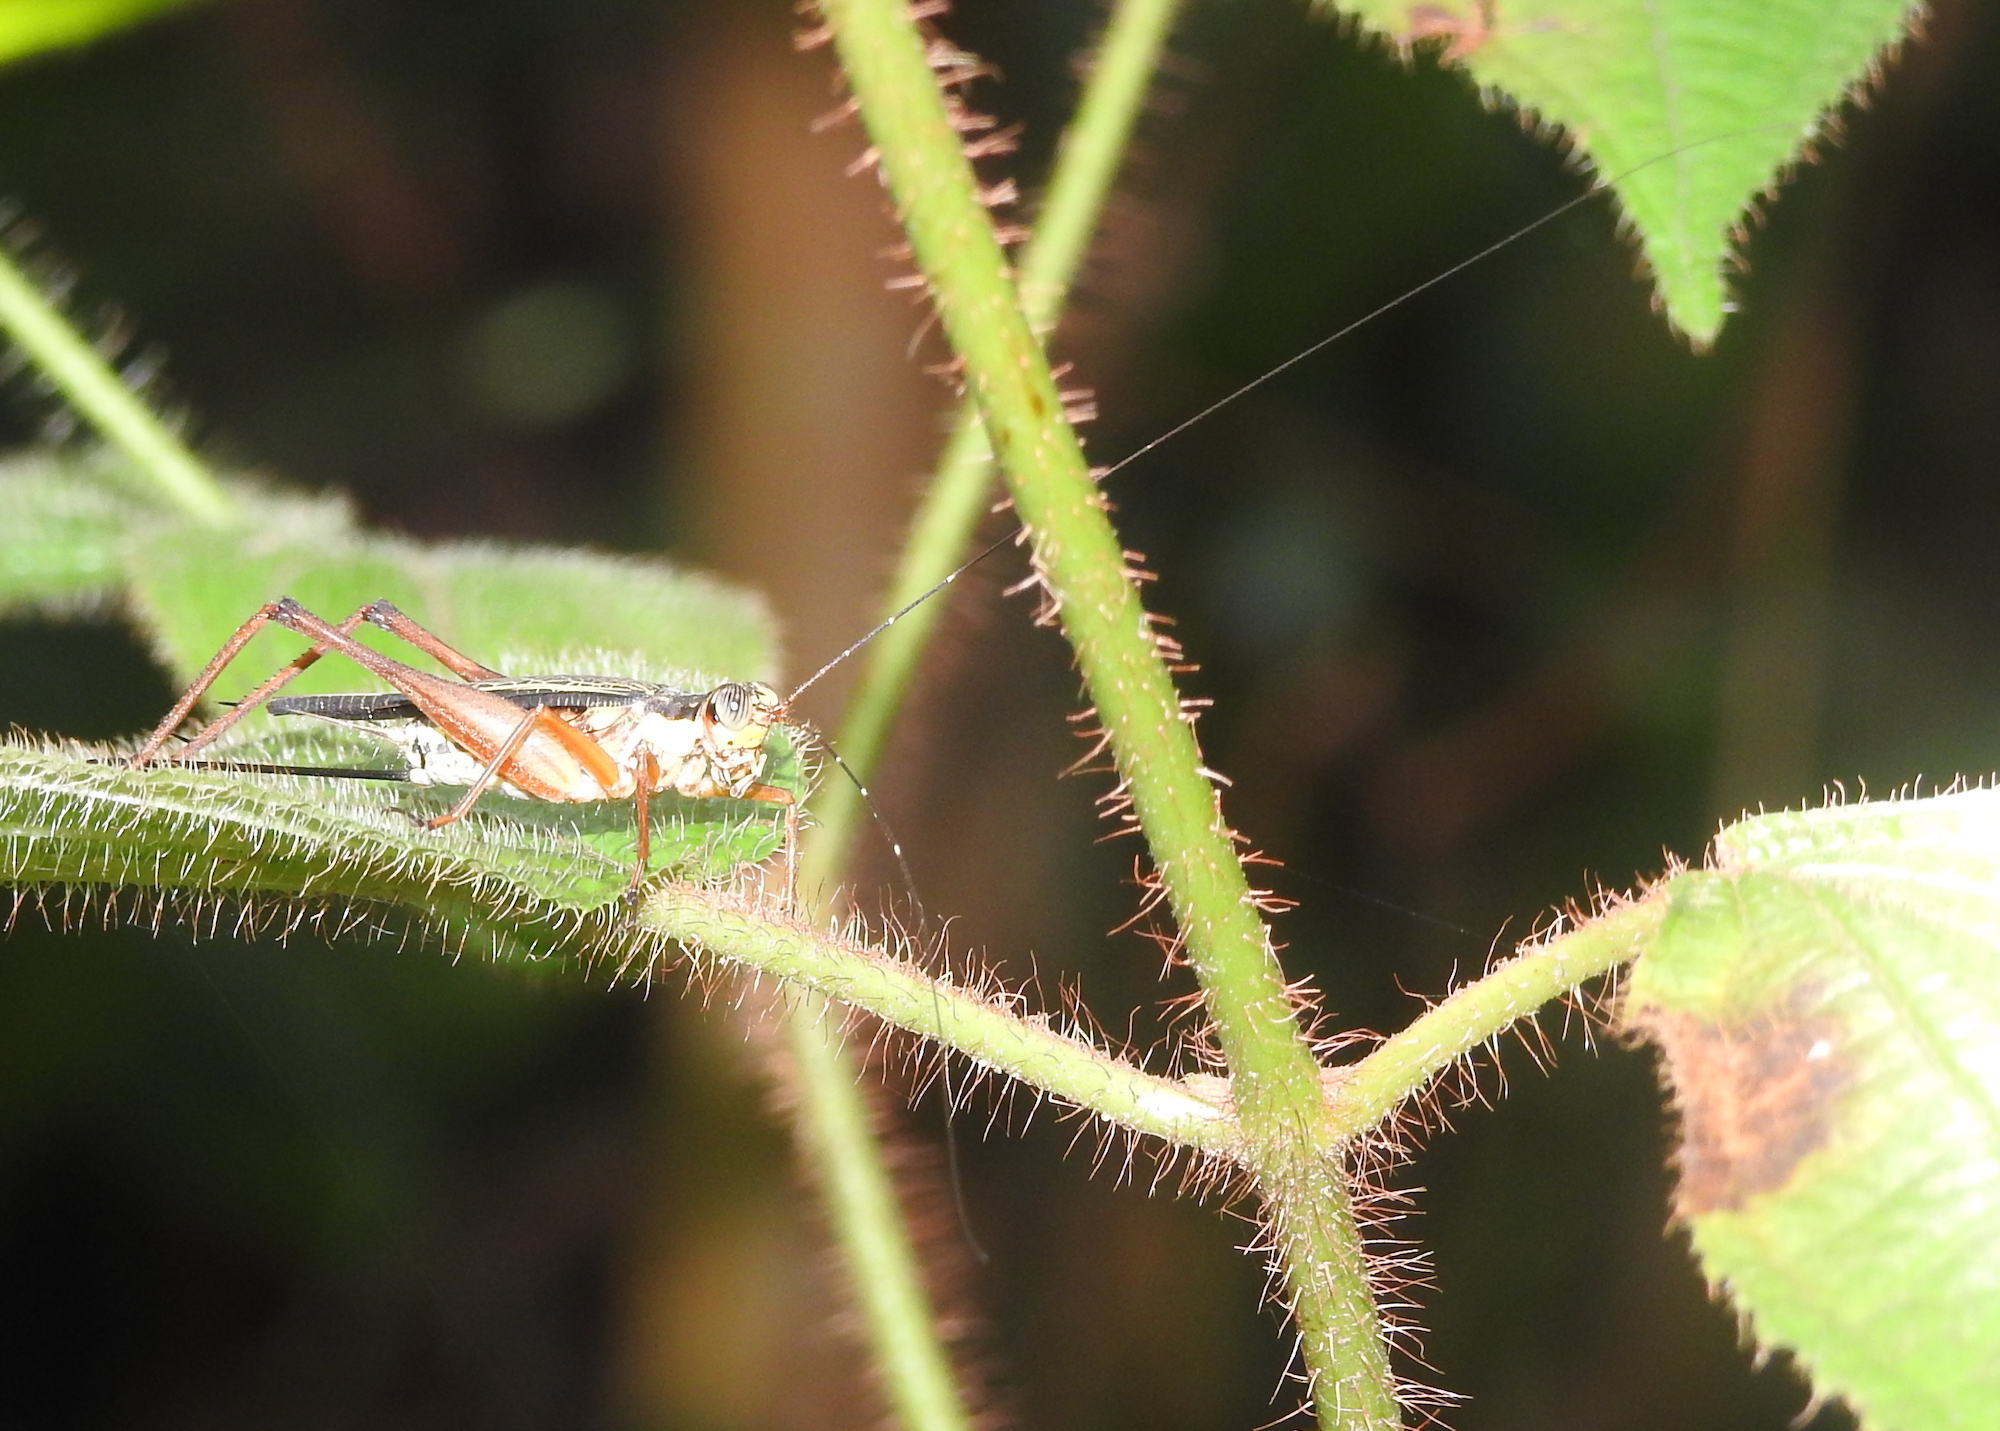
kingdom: Animalia
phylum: Arthropoda
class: Insecta
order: Orthoptera
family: Gryllidae
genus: Nisitrus
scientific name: Nisitrus malaya
